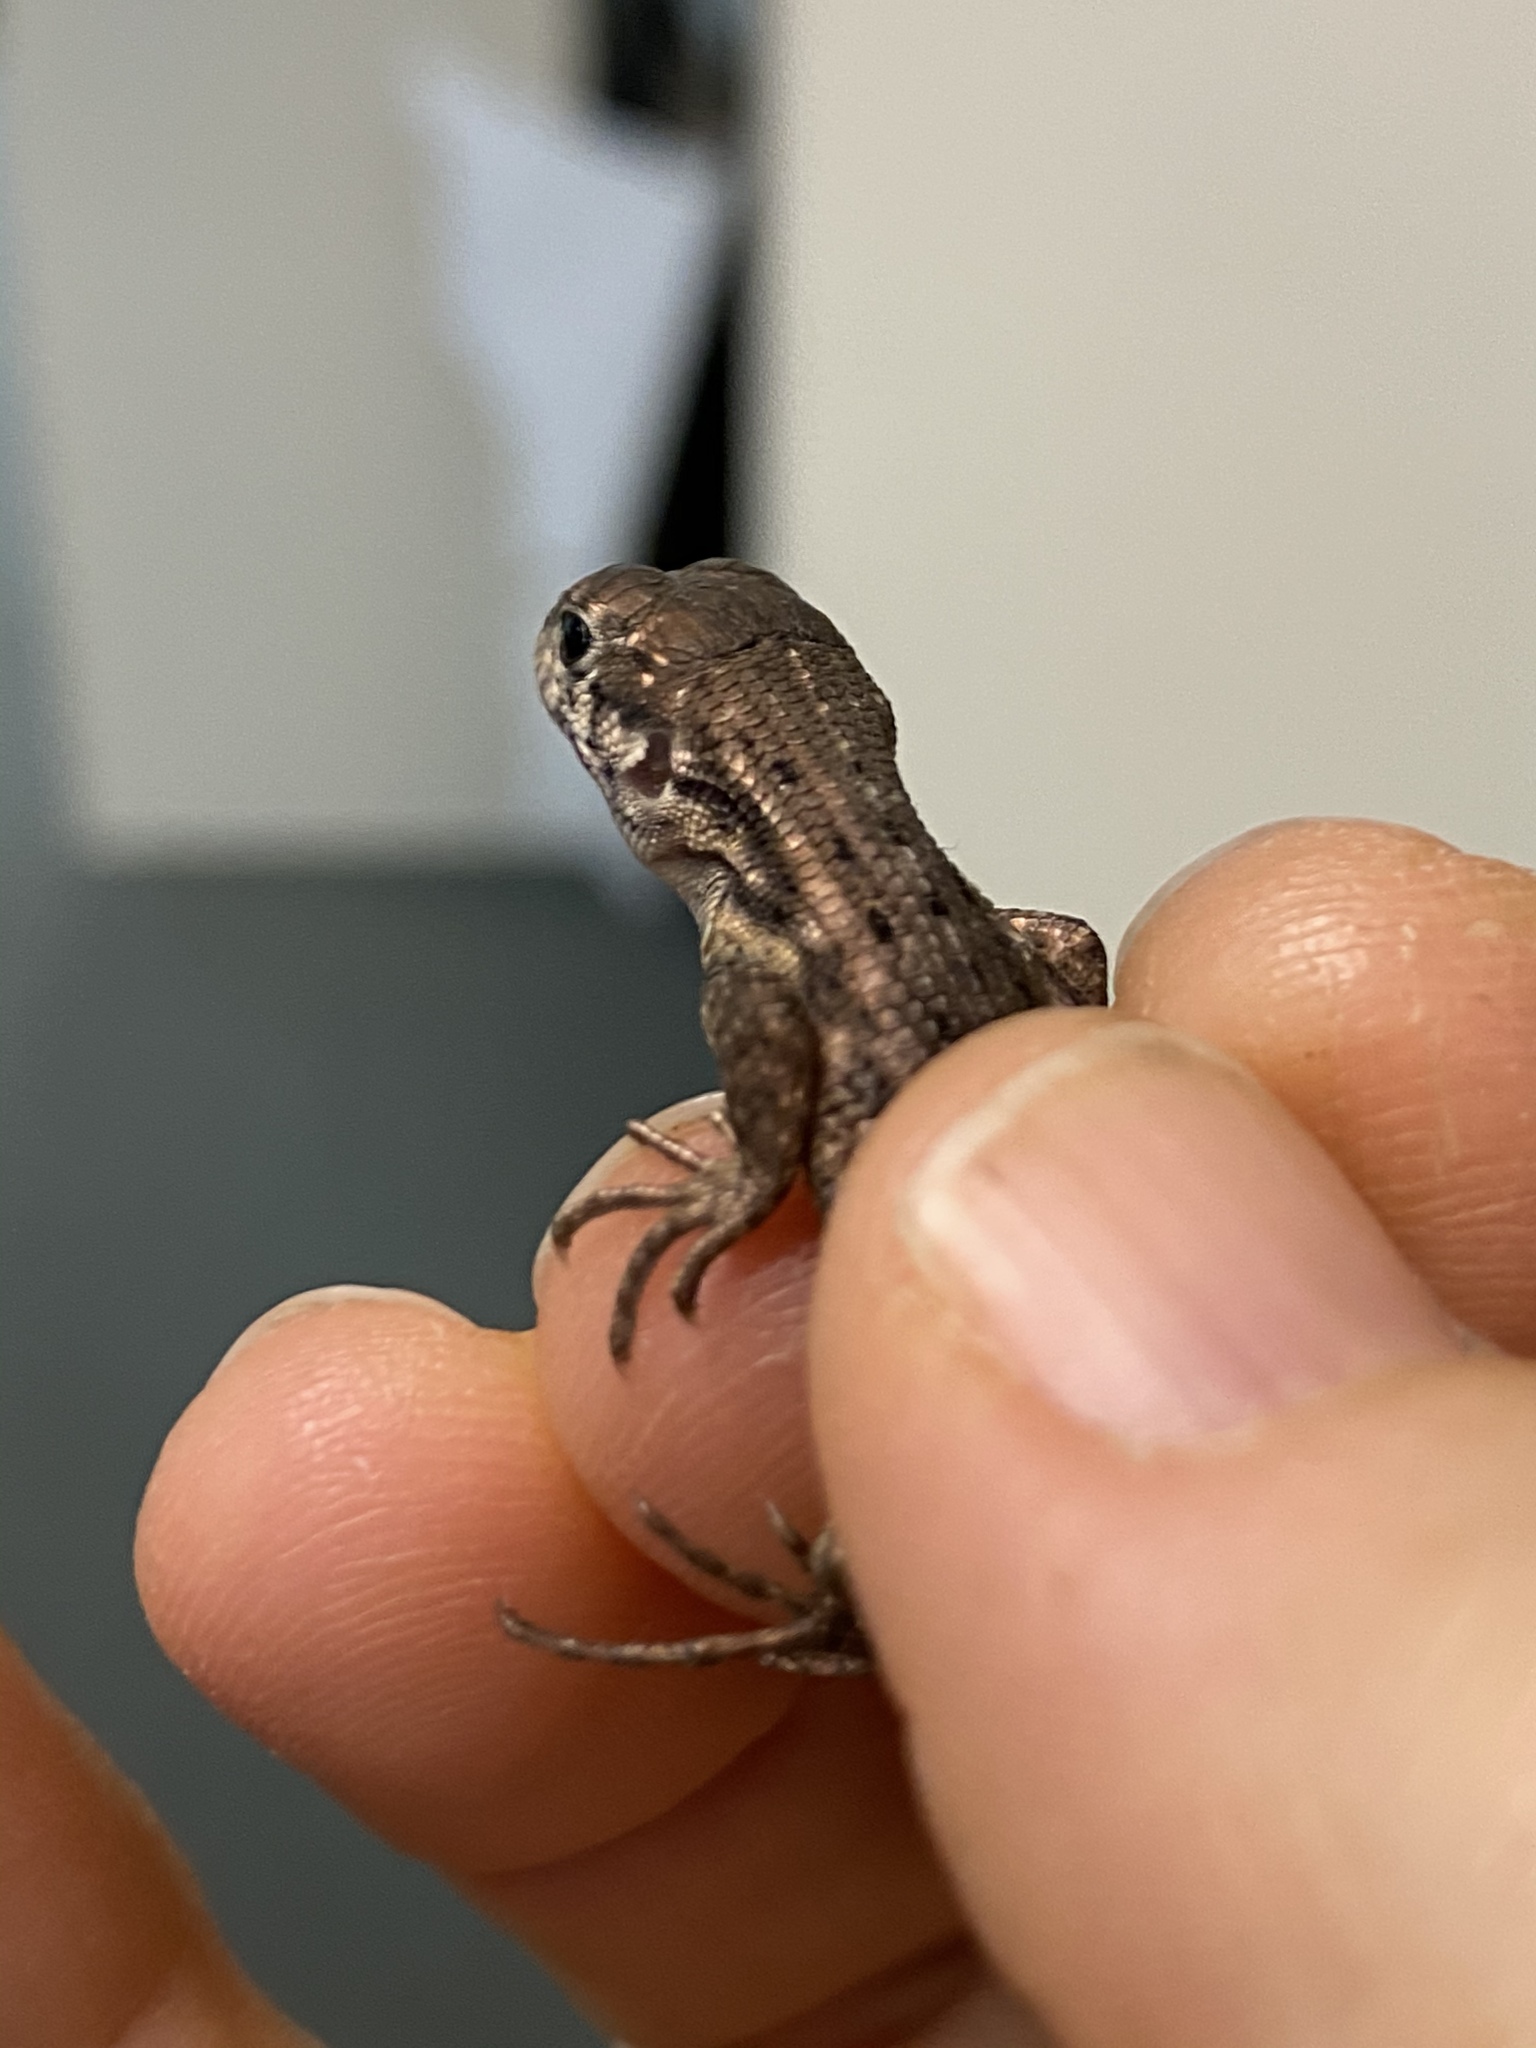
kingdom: Animalia
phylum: Chordata
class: Squamata
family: Leiocephalidae
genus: Leiocephalus
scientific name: Leiocephalus carinatus
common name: Northern curly-tailed lizard
